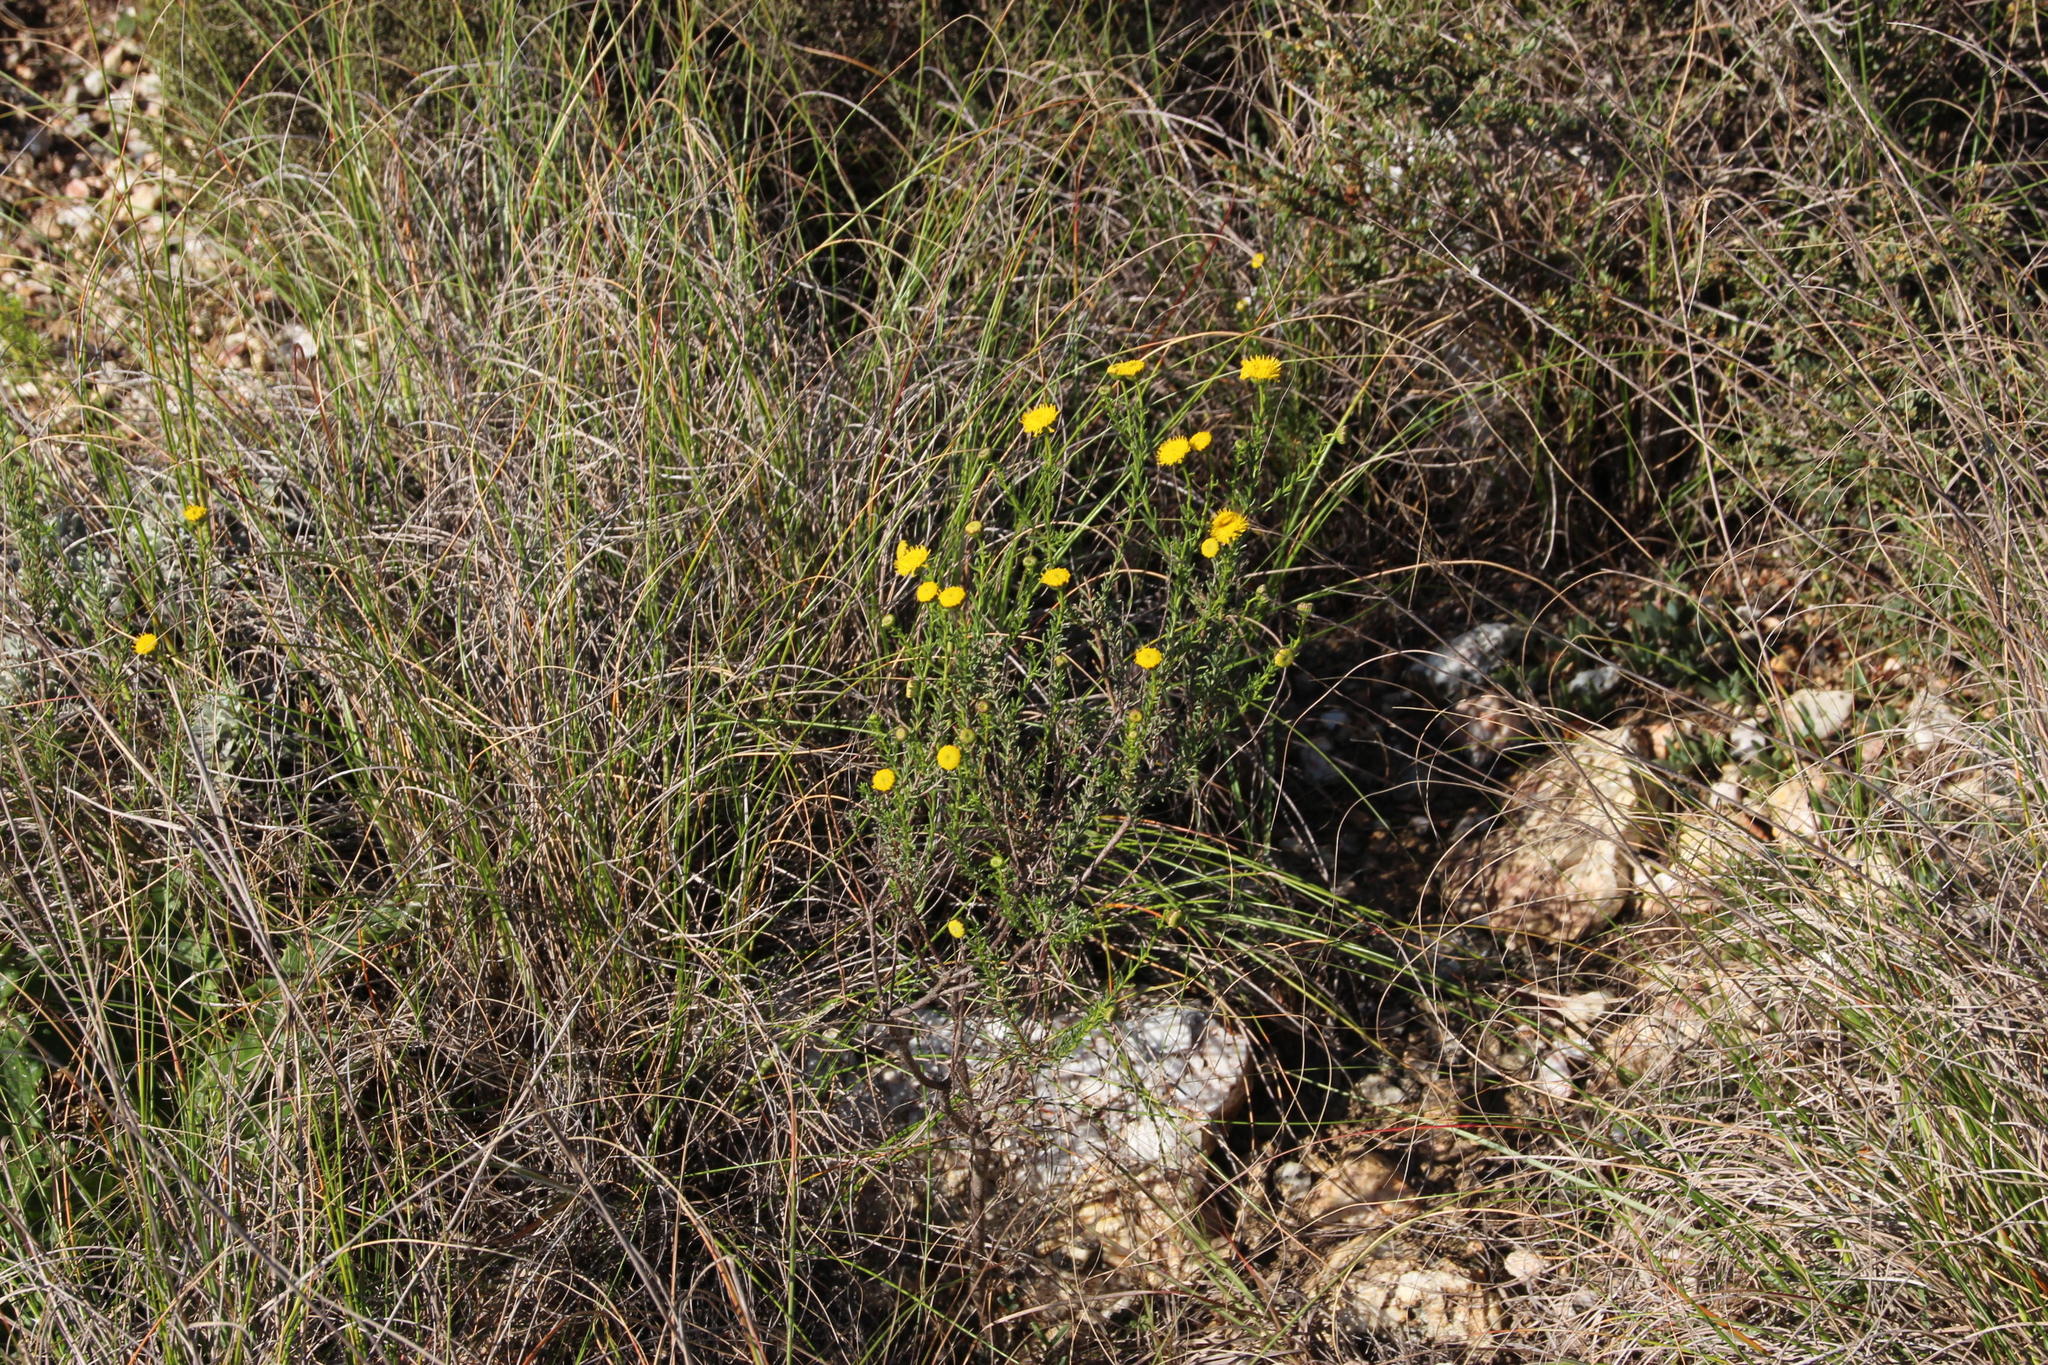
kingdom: Plantae
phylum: Tracheophyta
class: Magnoliopsida
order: Asterales
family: Asteraceae
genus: Chrysocoma
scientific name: Chrysocoma ciliata
